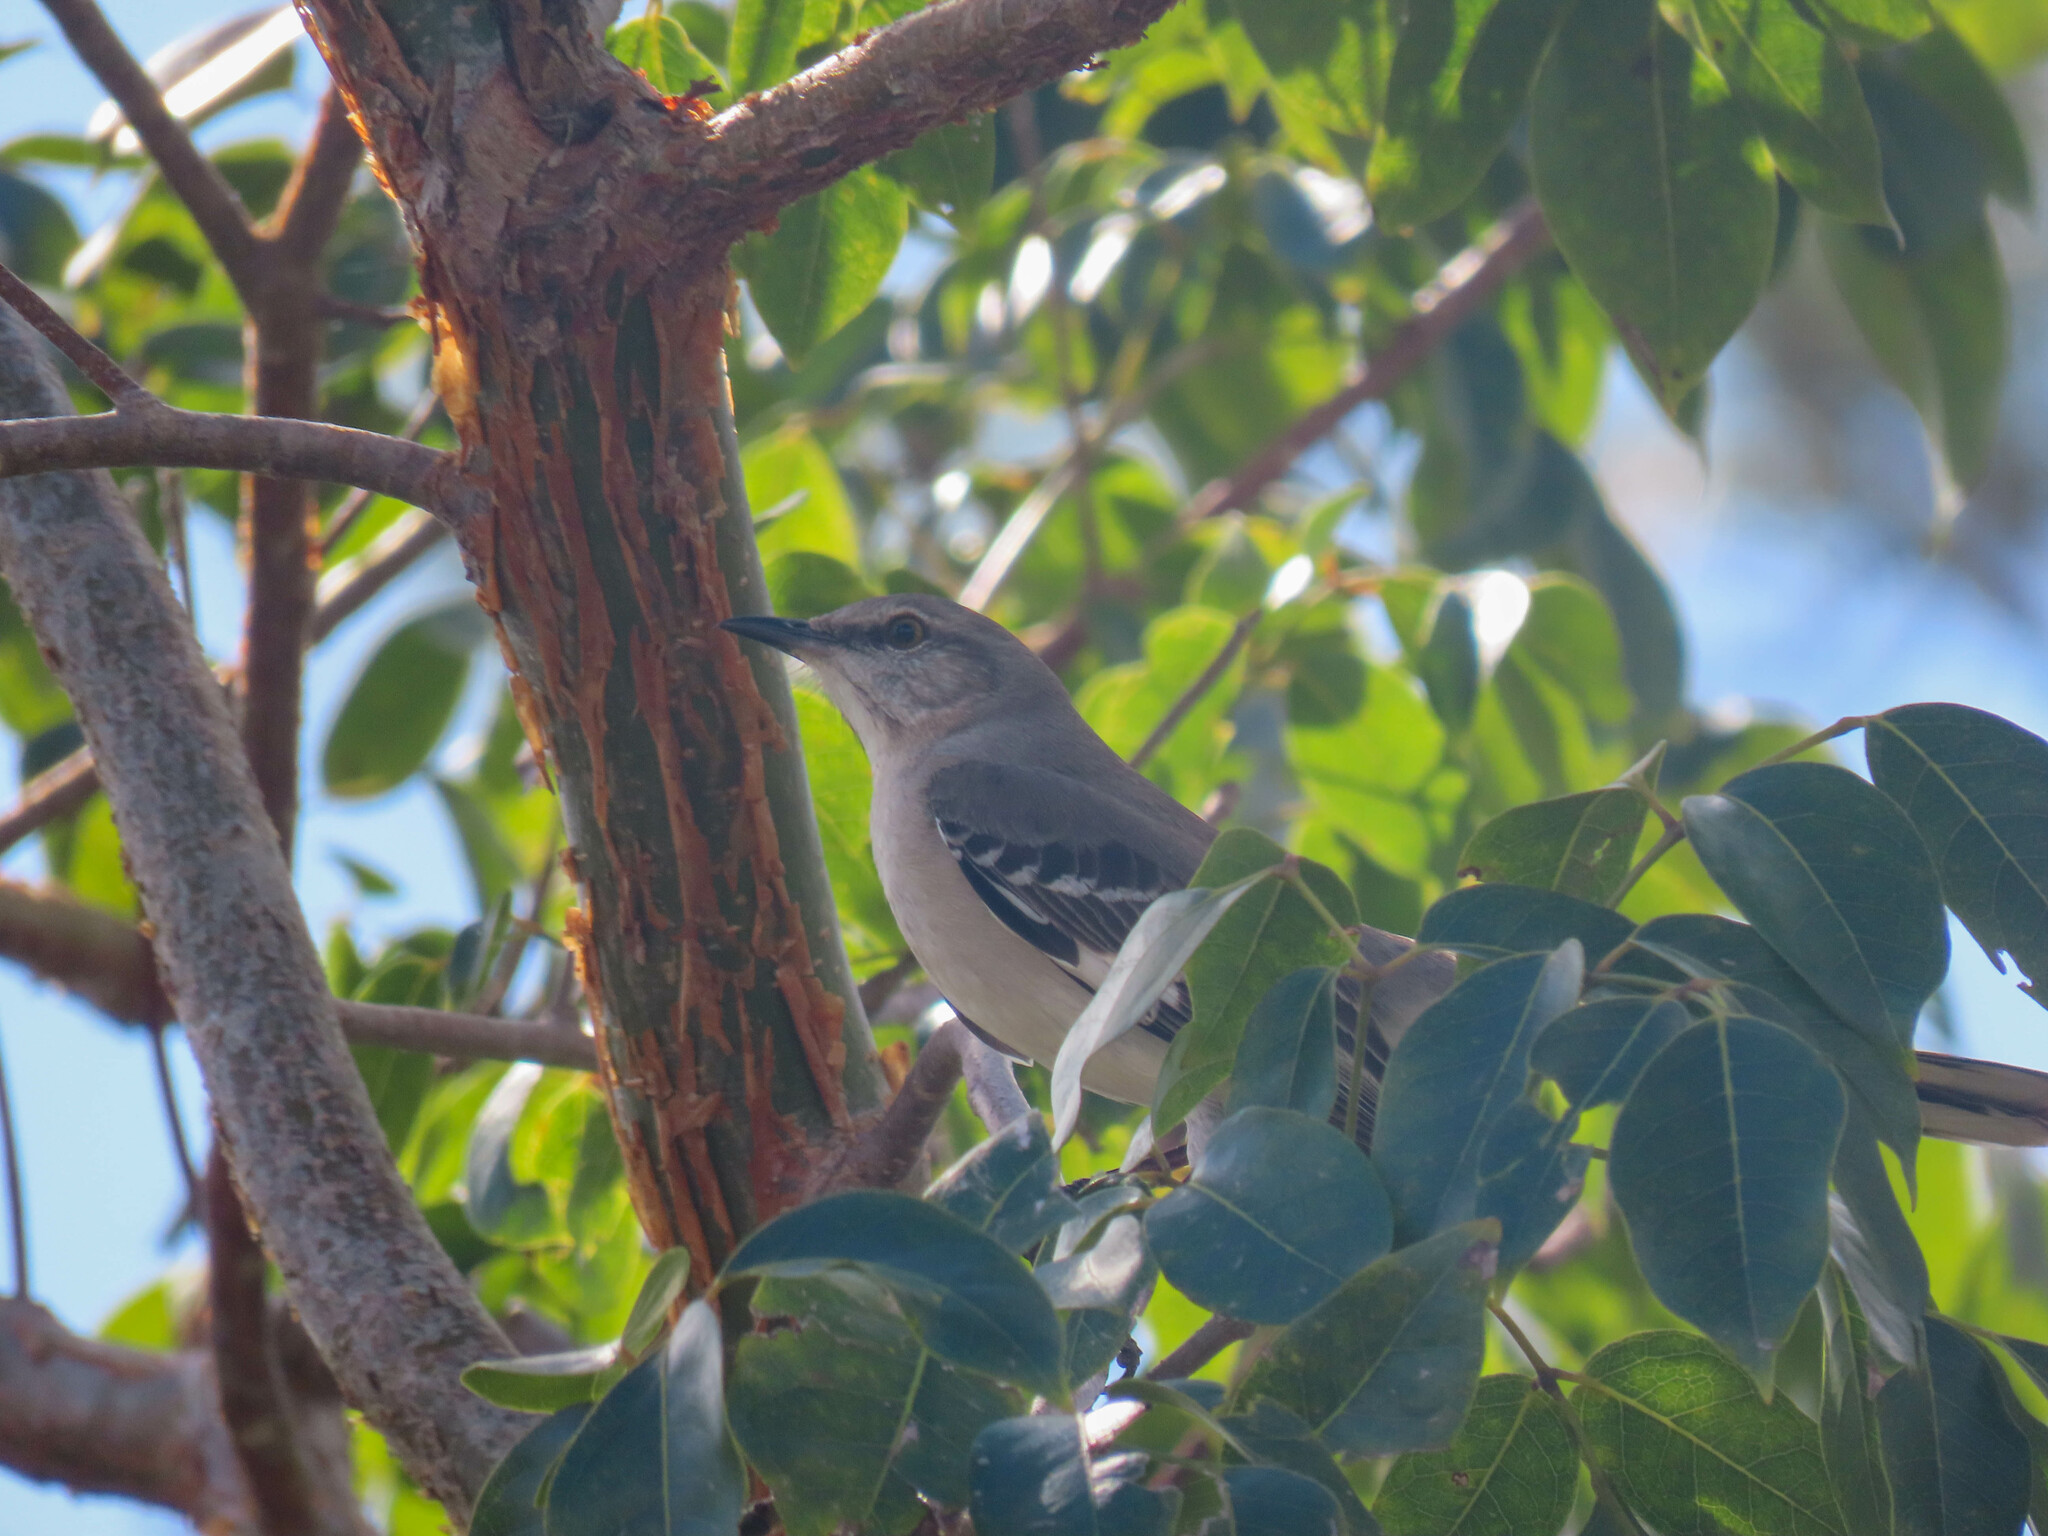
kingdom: Animalia
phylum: Chordata
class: Aves
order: Passeriformes
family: Mimidae
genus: Mimus
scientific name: Mimus polyglottos
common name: Northern mockingbird
